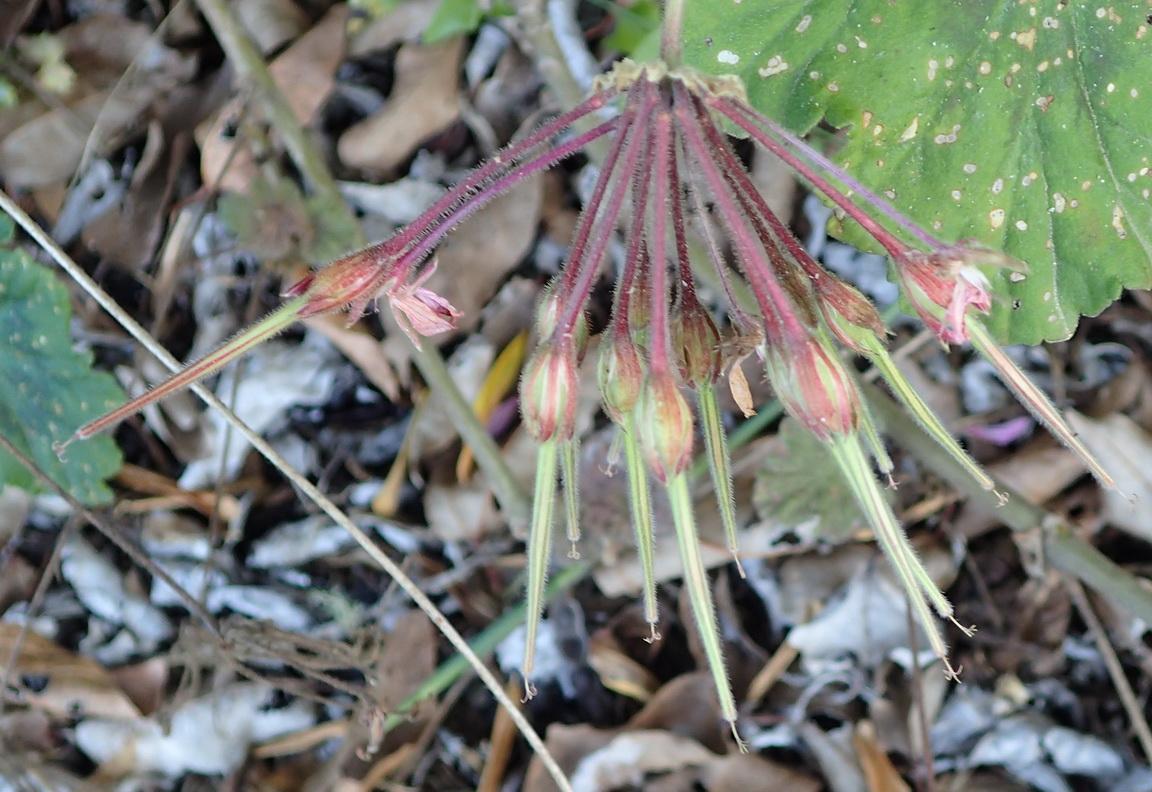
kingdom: Plantae
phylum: Tracheophyta
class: Magnoliopsida
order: Geraniales
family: Geraniaceae
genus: Pelargonium
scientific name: Pelargonium zonale
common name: Horseshoe geranium
